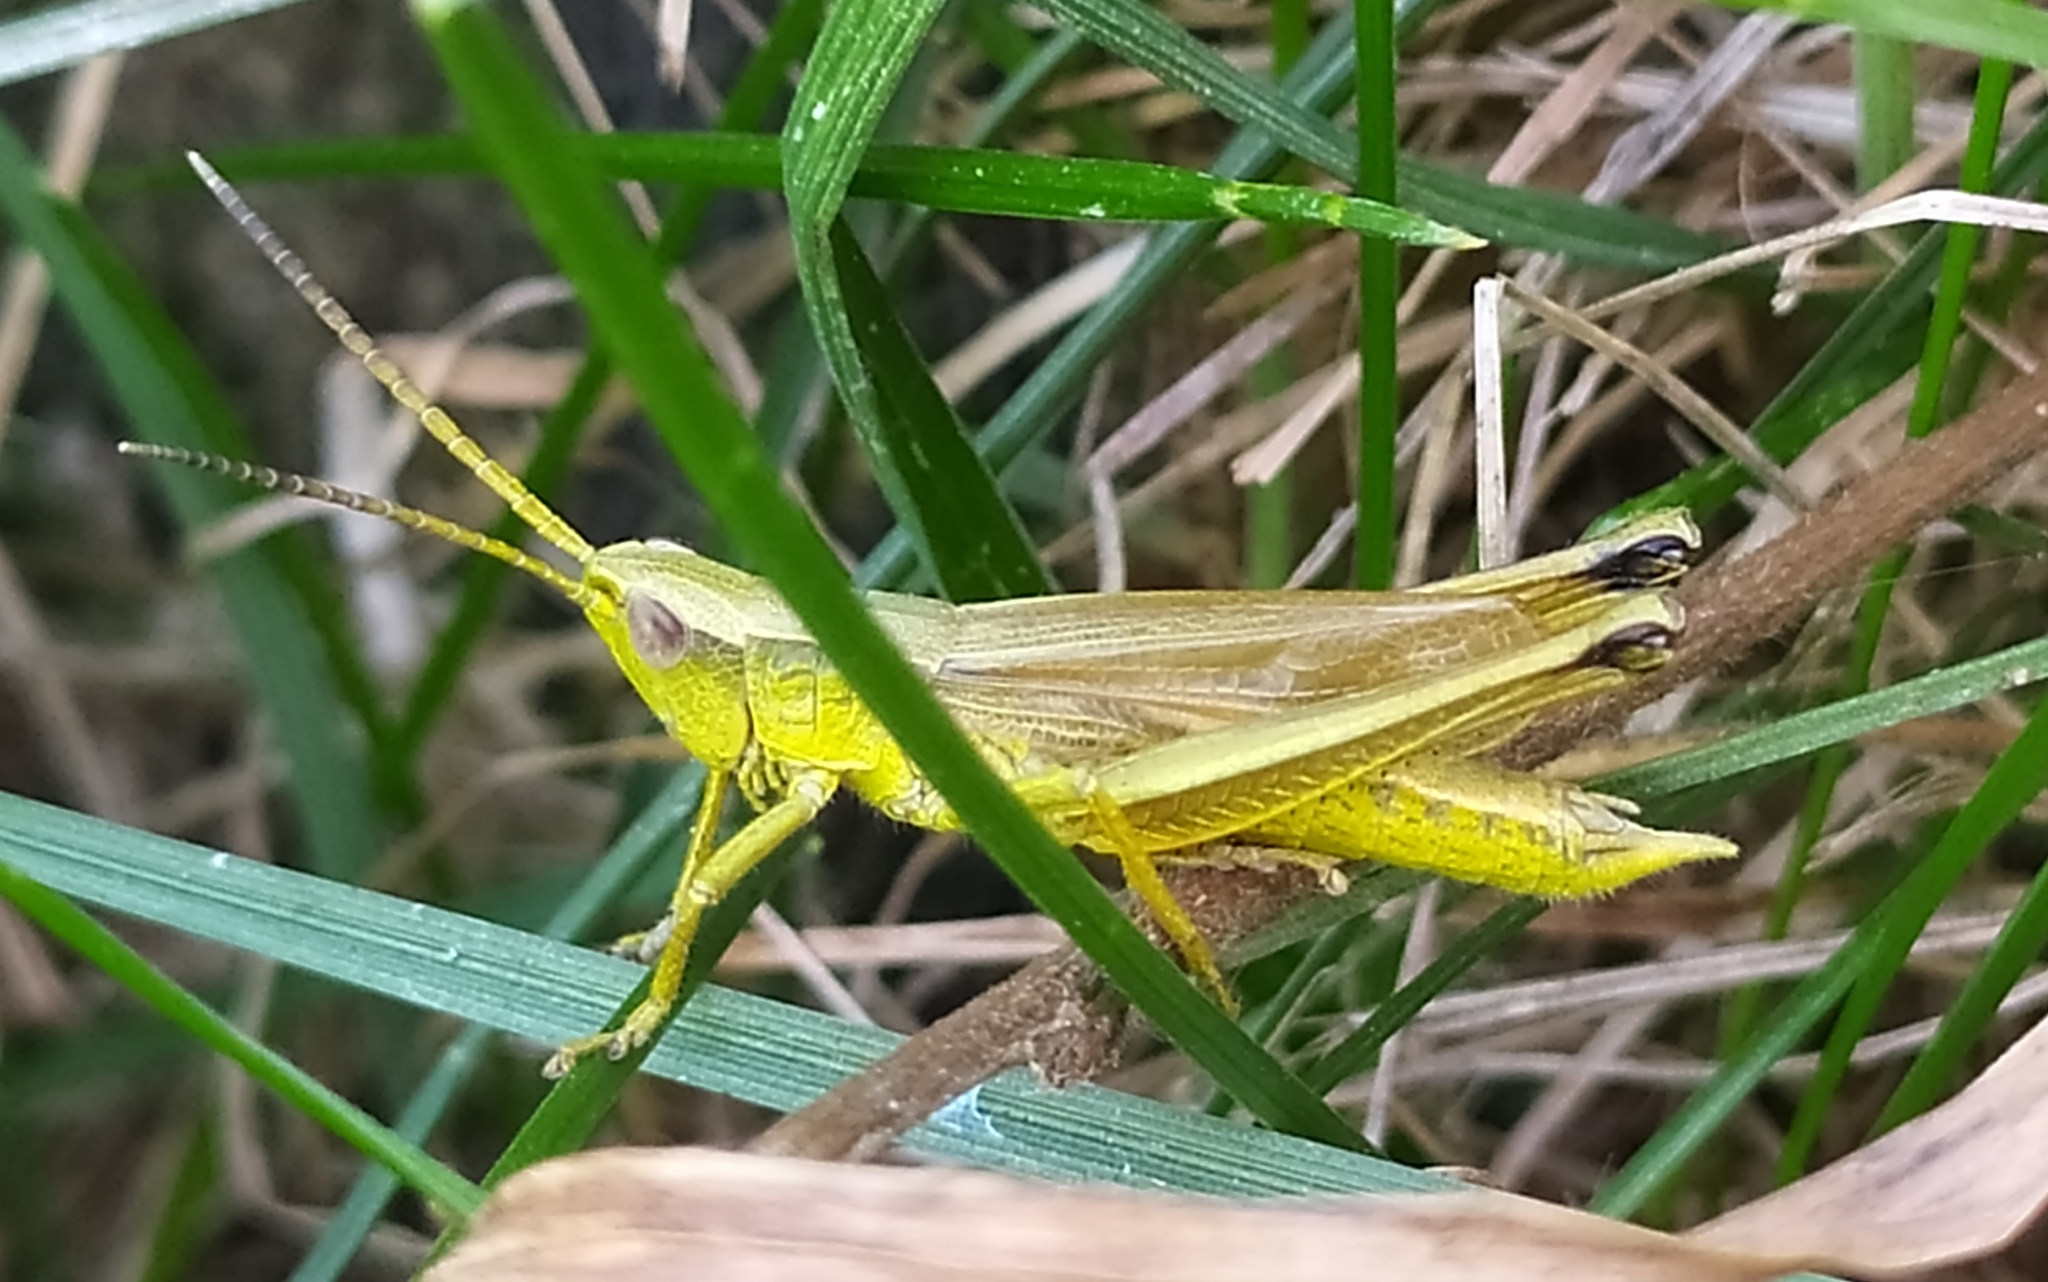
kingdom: Animalia
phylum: Arthropoda
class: Insecta
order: Orthoptera
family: Acrididae
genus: Chrysochraon
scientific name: Chrysochraon dispar
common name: Large gold grasshopper
